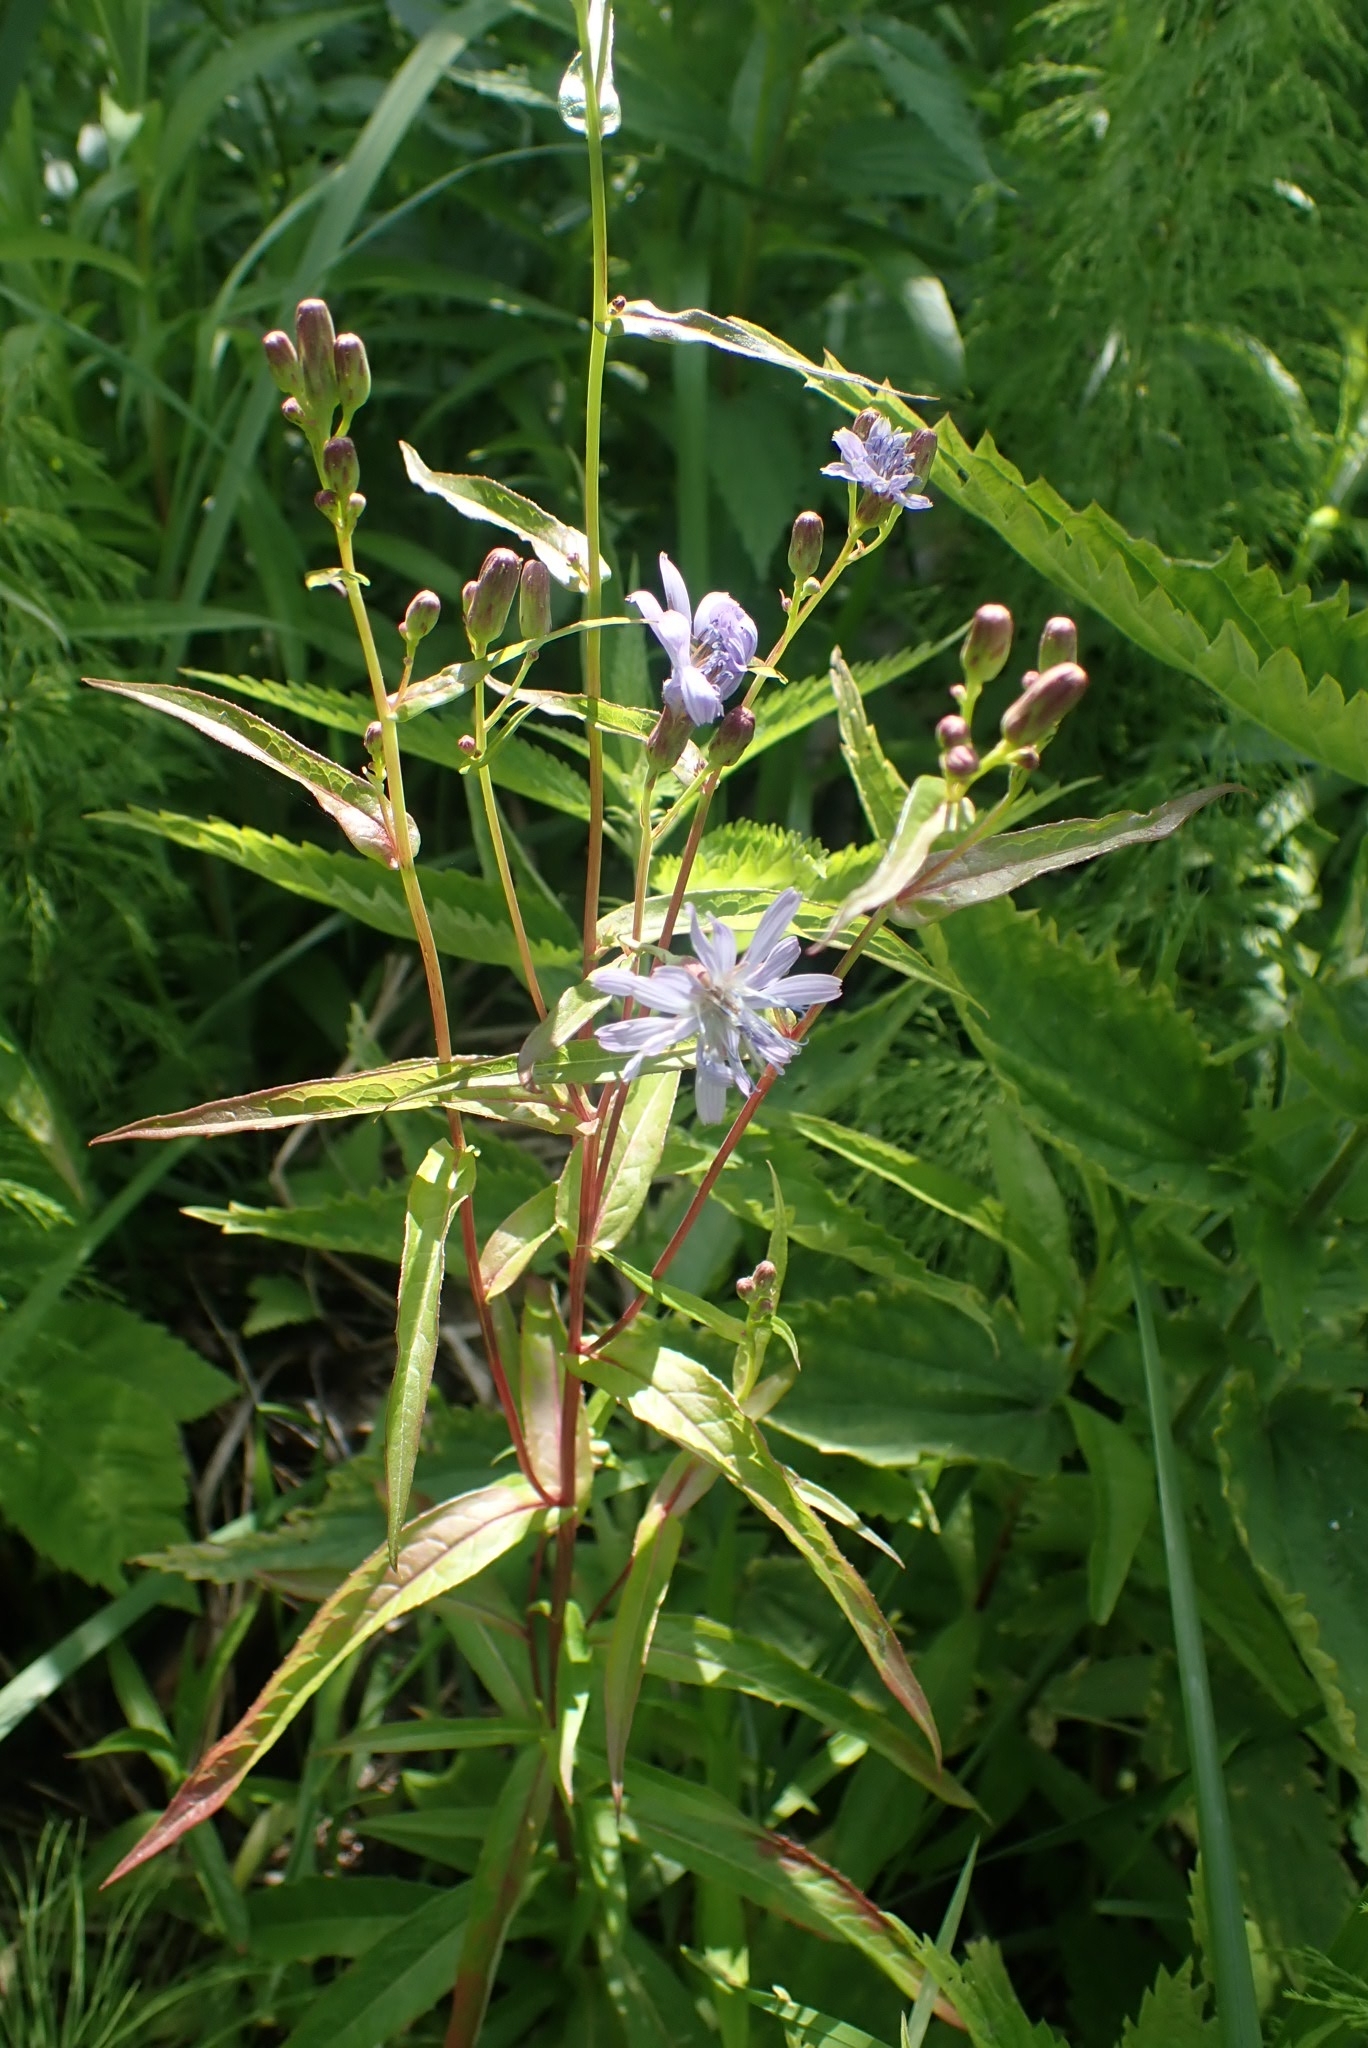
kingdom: Plantae
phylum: Tracheophyta
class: Magnoliopsida
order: Asterales
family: Asteraceae
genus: Lactuca
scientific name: Lactuca sibirica
